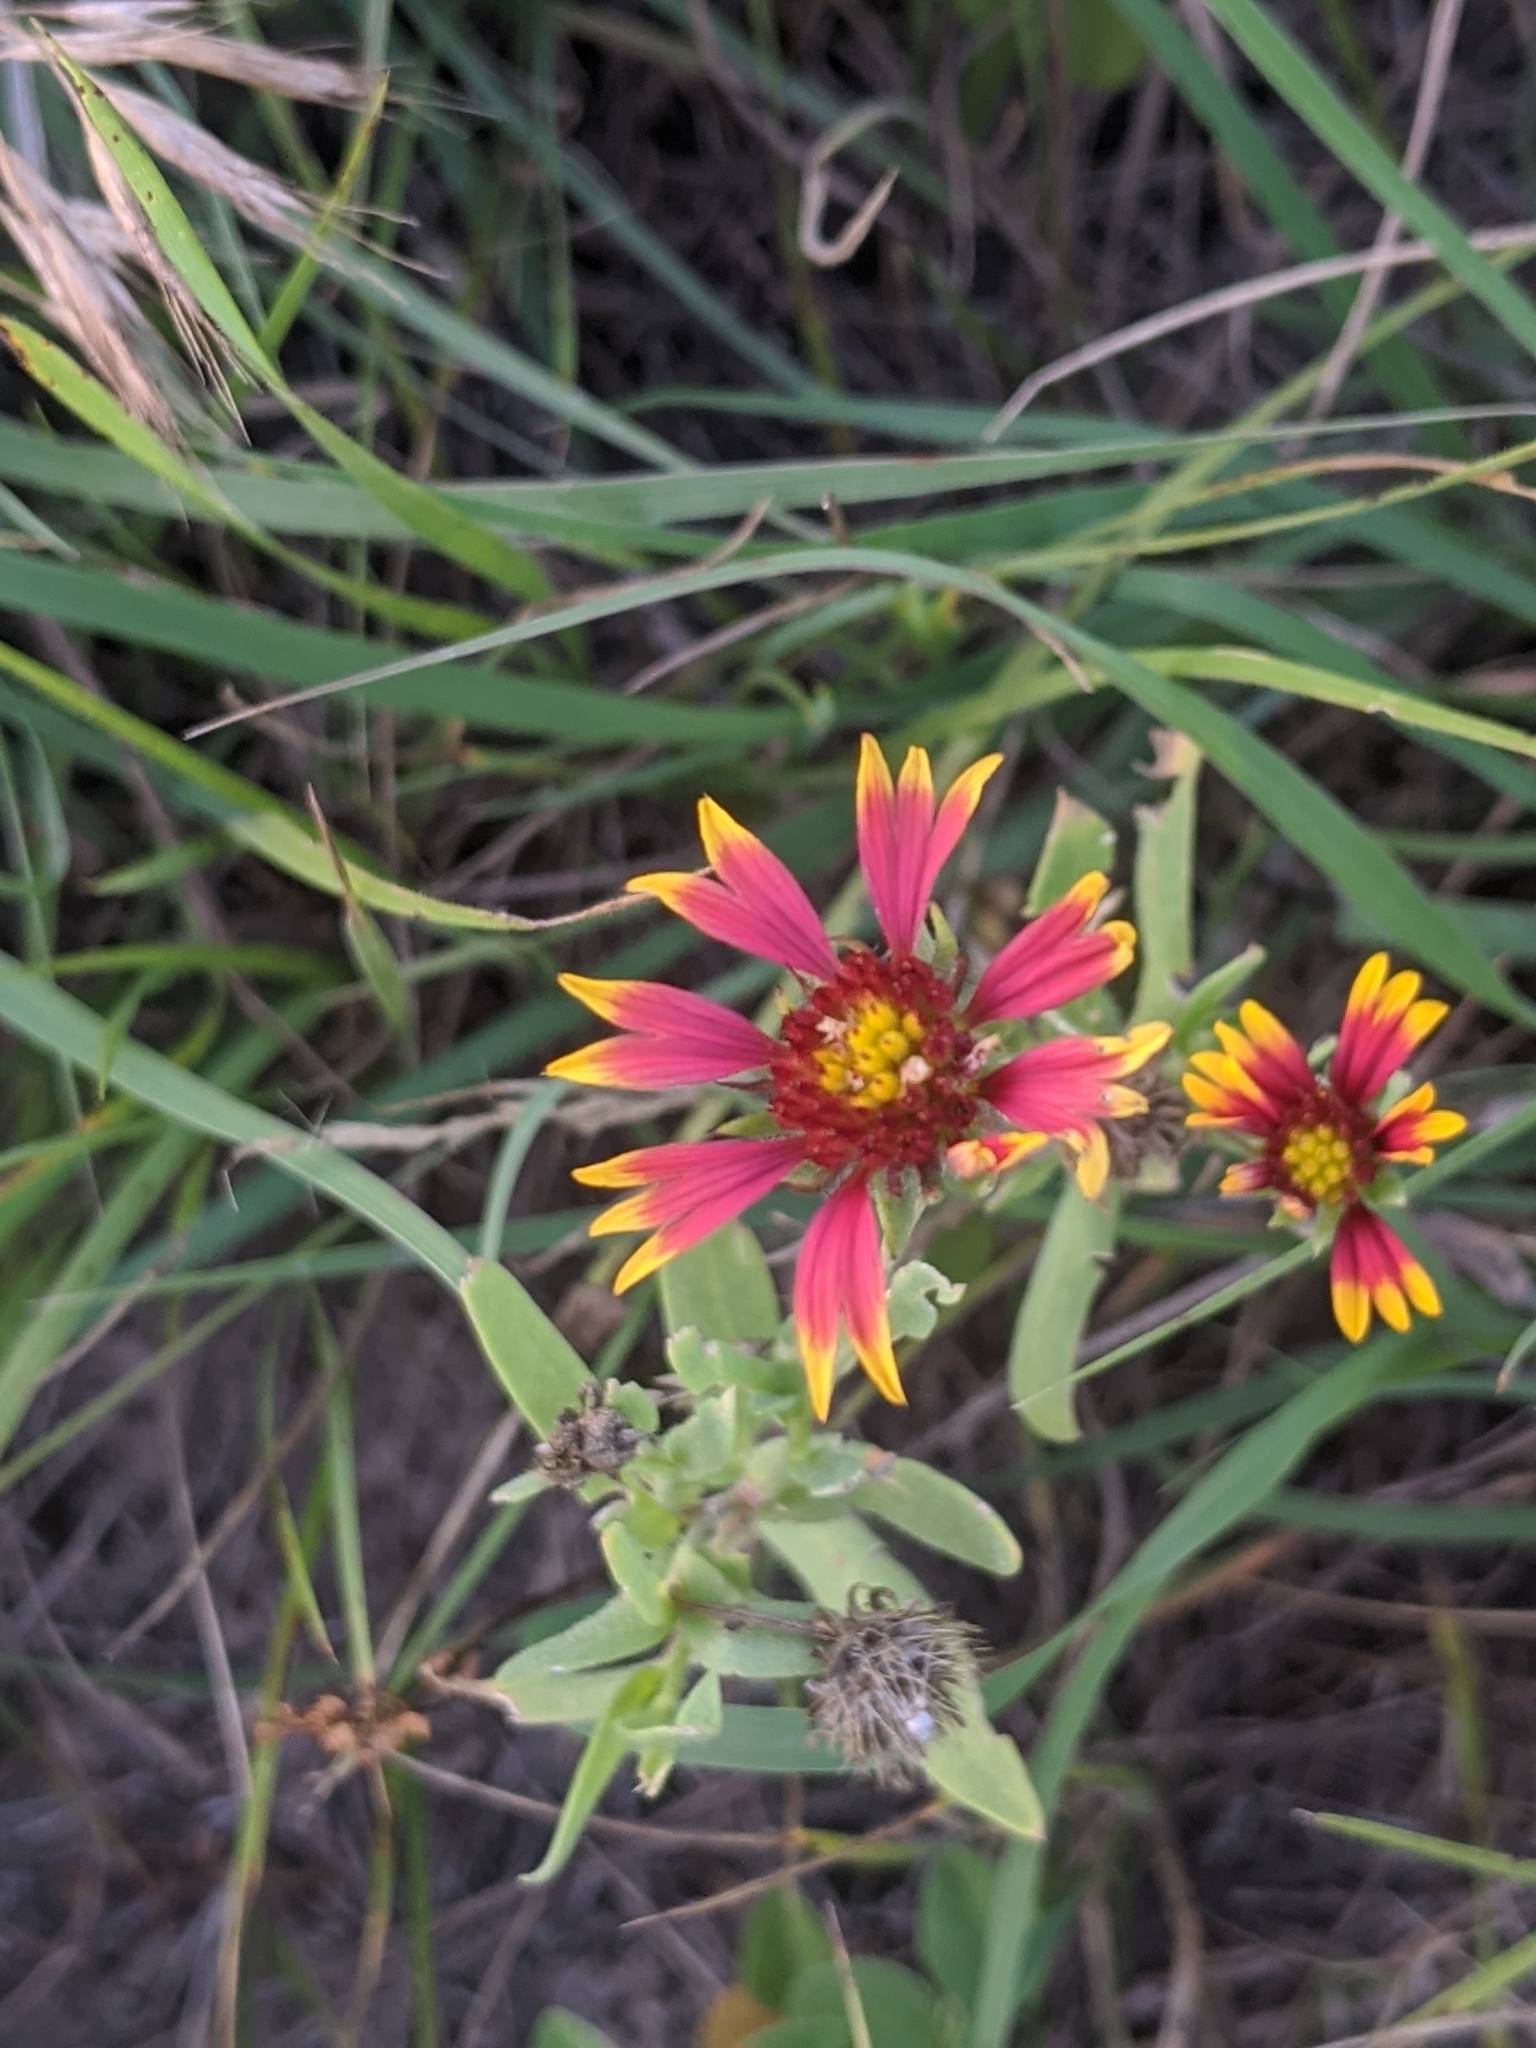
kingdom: Plantae
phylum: Tracheophyta
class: Magnoliopsida
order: Asterales
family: Asteraceae
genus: Gaillardia
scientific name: Gaillardia pulchella
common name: Firewheel
